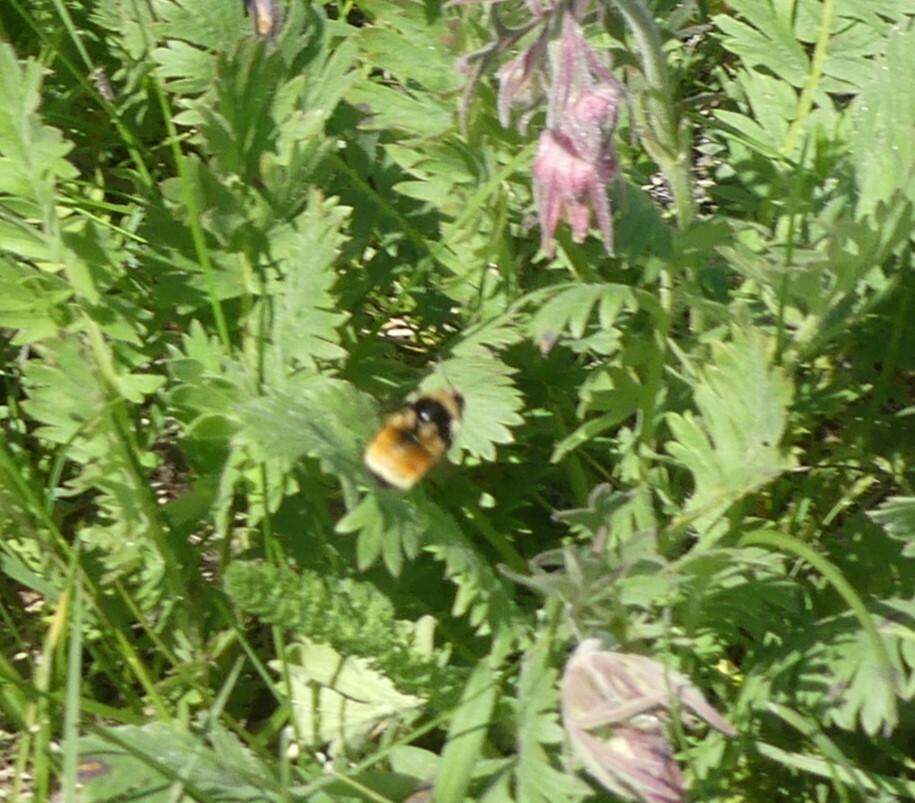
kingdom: Animalia
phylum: Arthropoda
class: Insecta
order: Hymenoptera
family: Apidae
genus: Bombus
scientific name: Bombus vancouverensis
